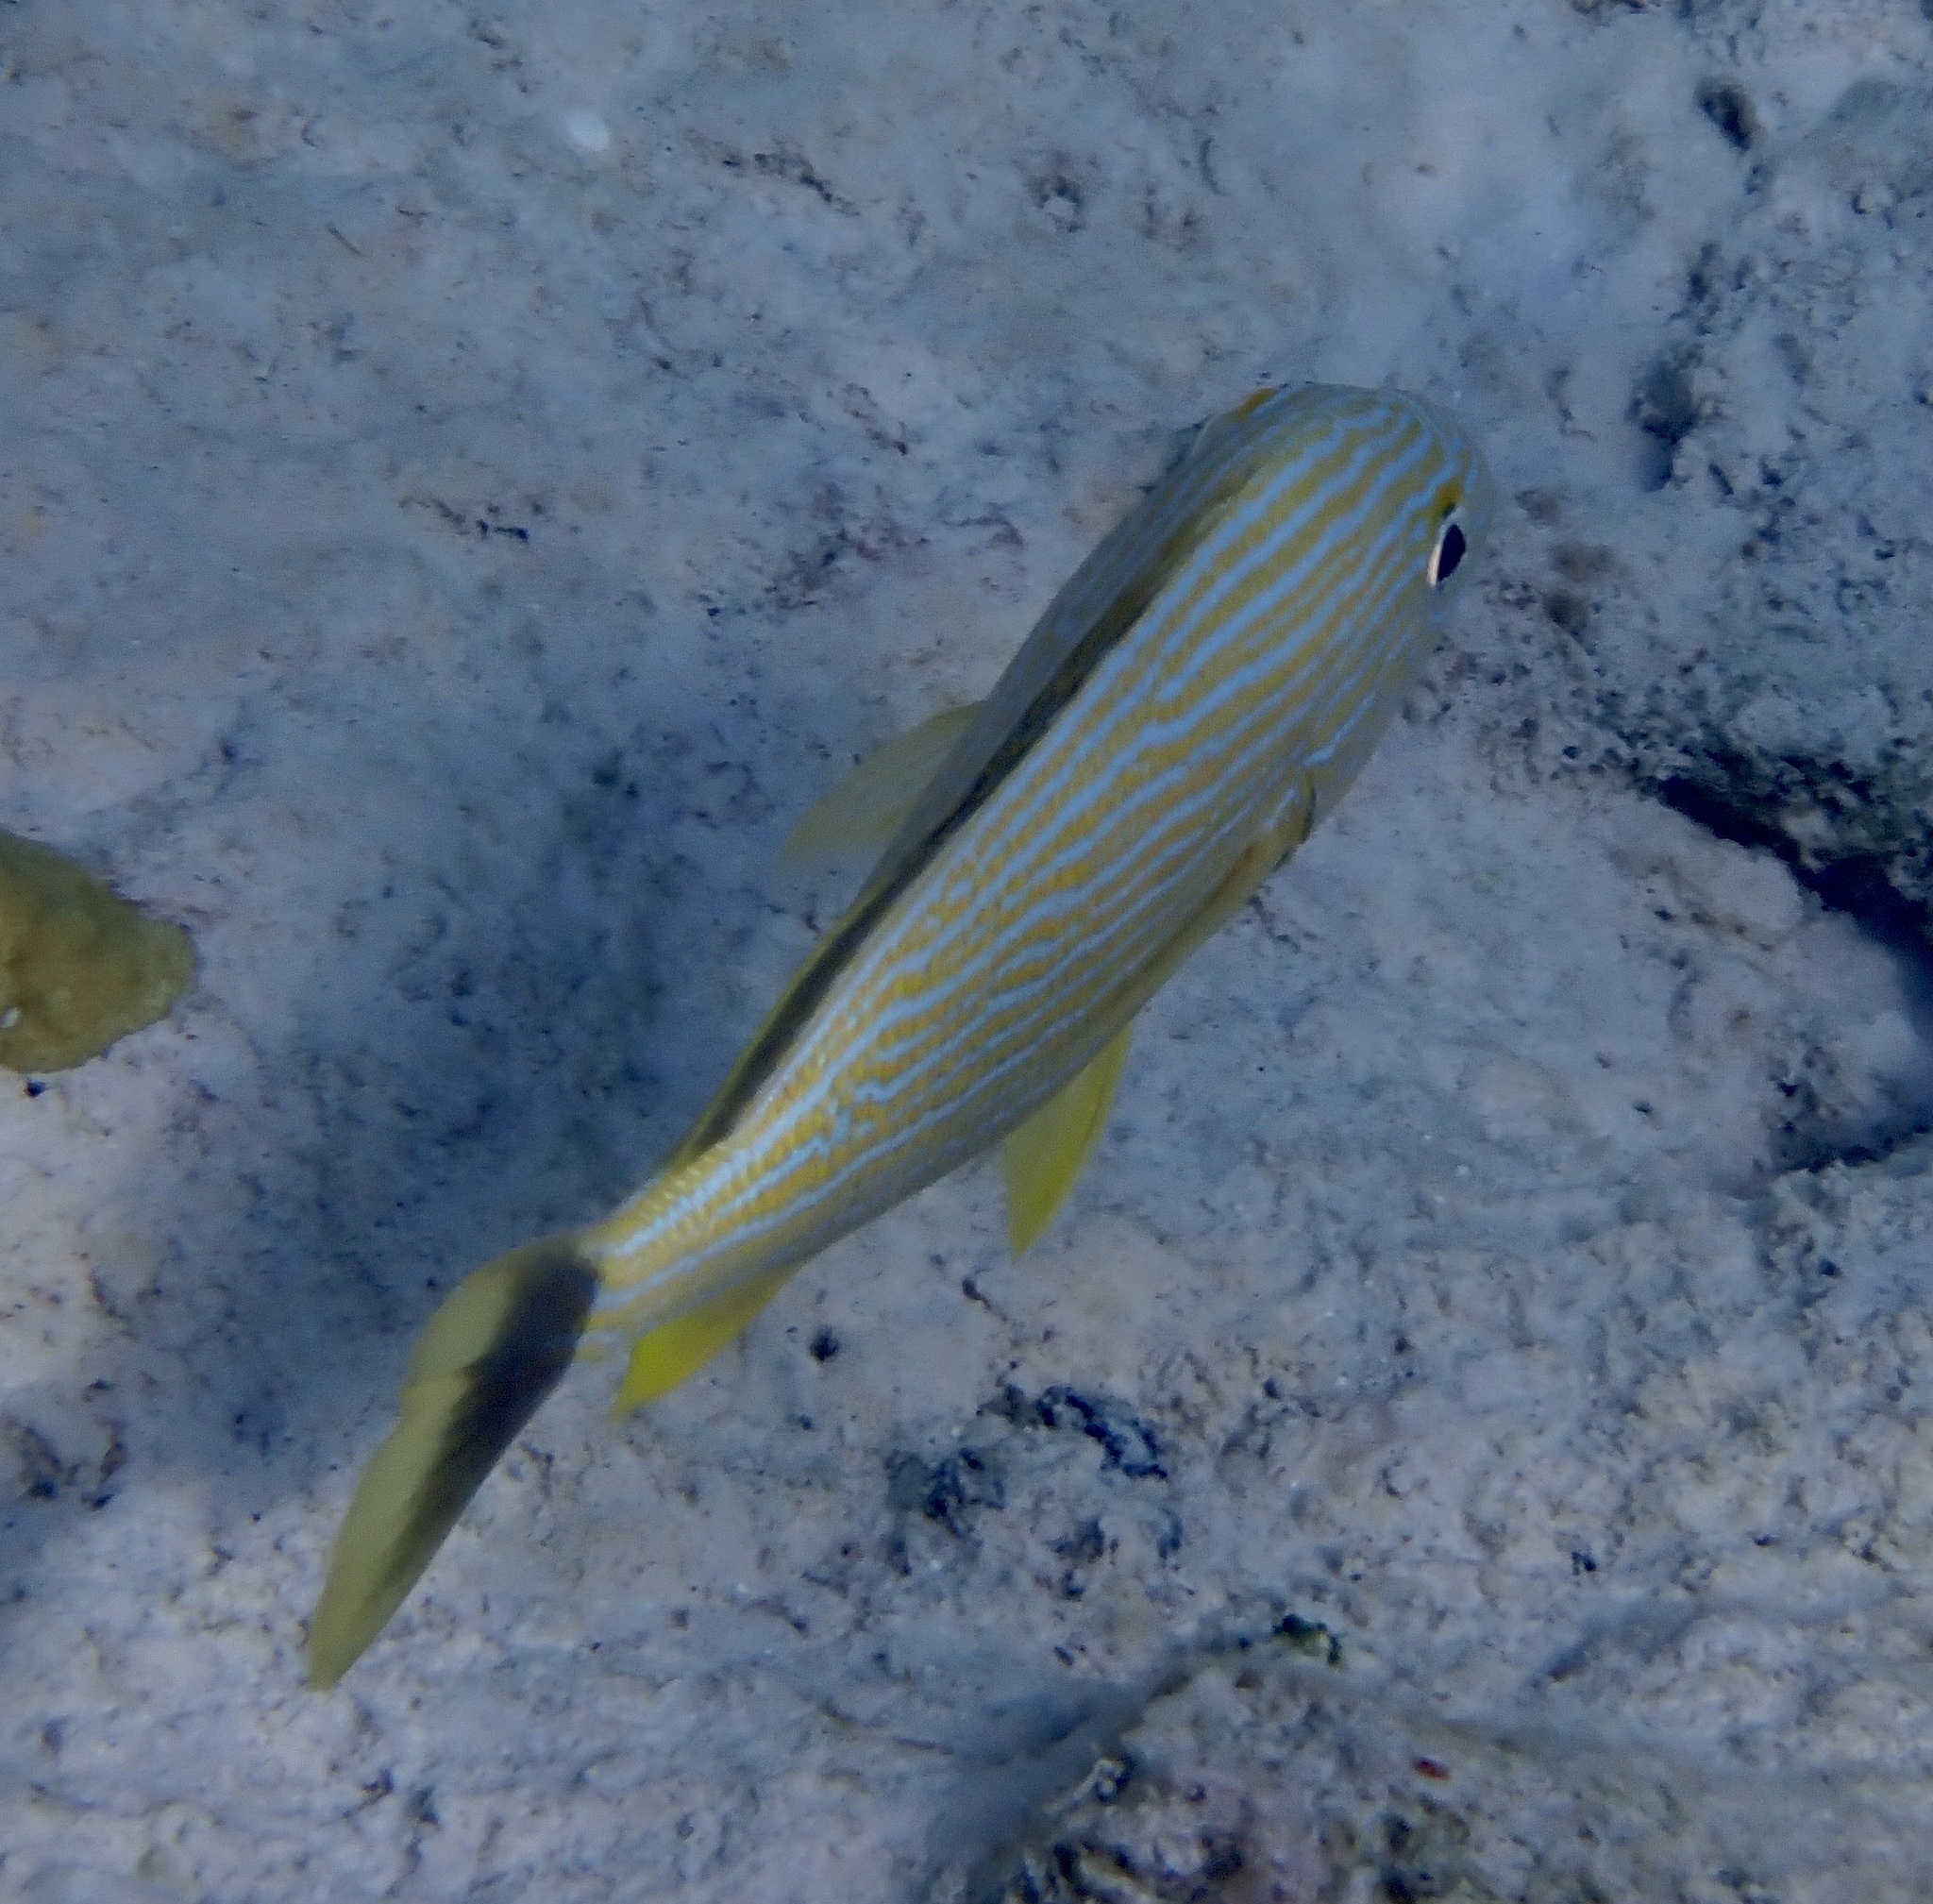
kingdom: Animalia
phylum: Chordata
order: Perciformes
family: Haemulidae
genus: Haemulon
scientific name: Haemulon sciurus
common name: Bluestriped grunt
